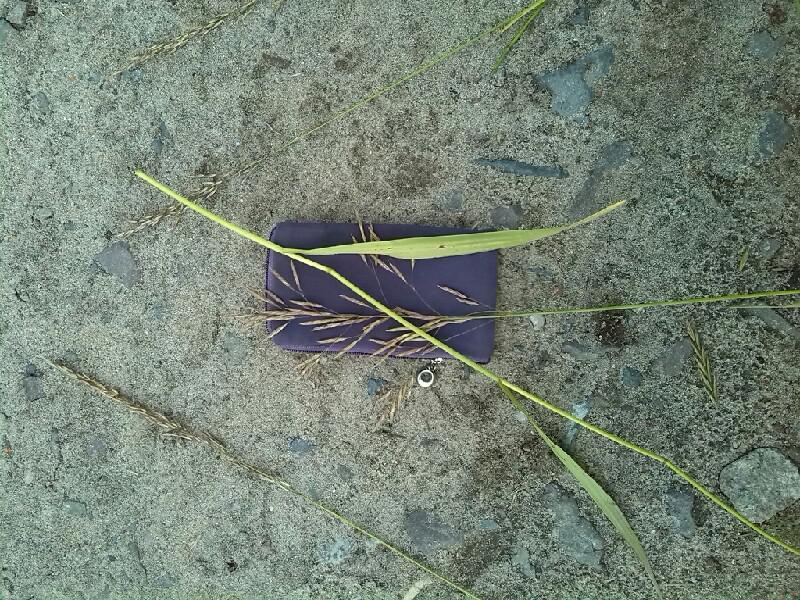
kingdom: Plantae
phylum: Tracheophyta
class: Liliopsida
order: Poales
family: Poaceae
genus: Bromus
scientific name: Bromus inermis
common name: Smooth brome
